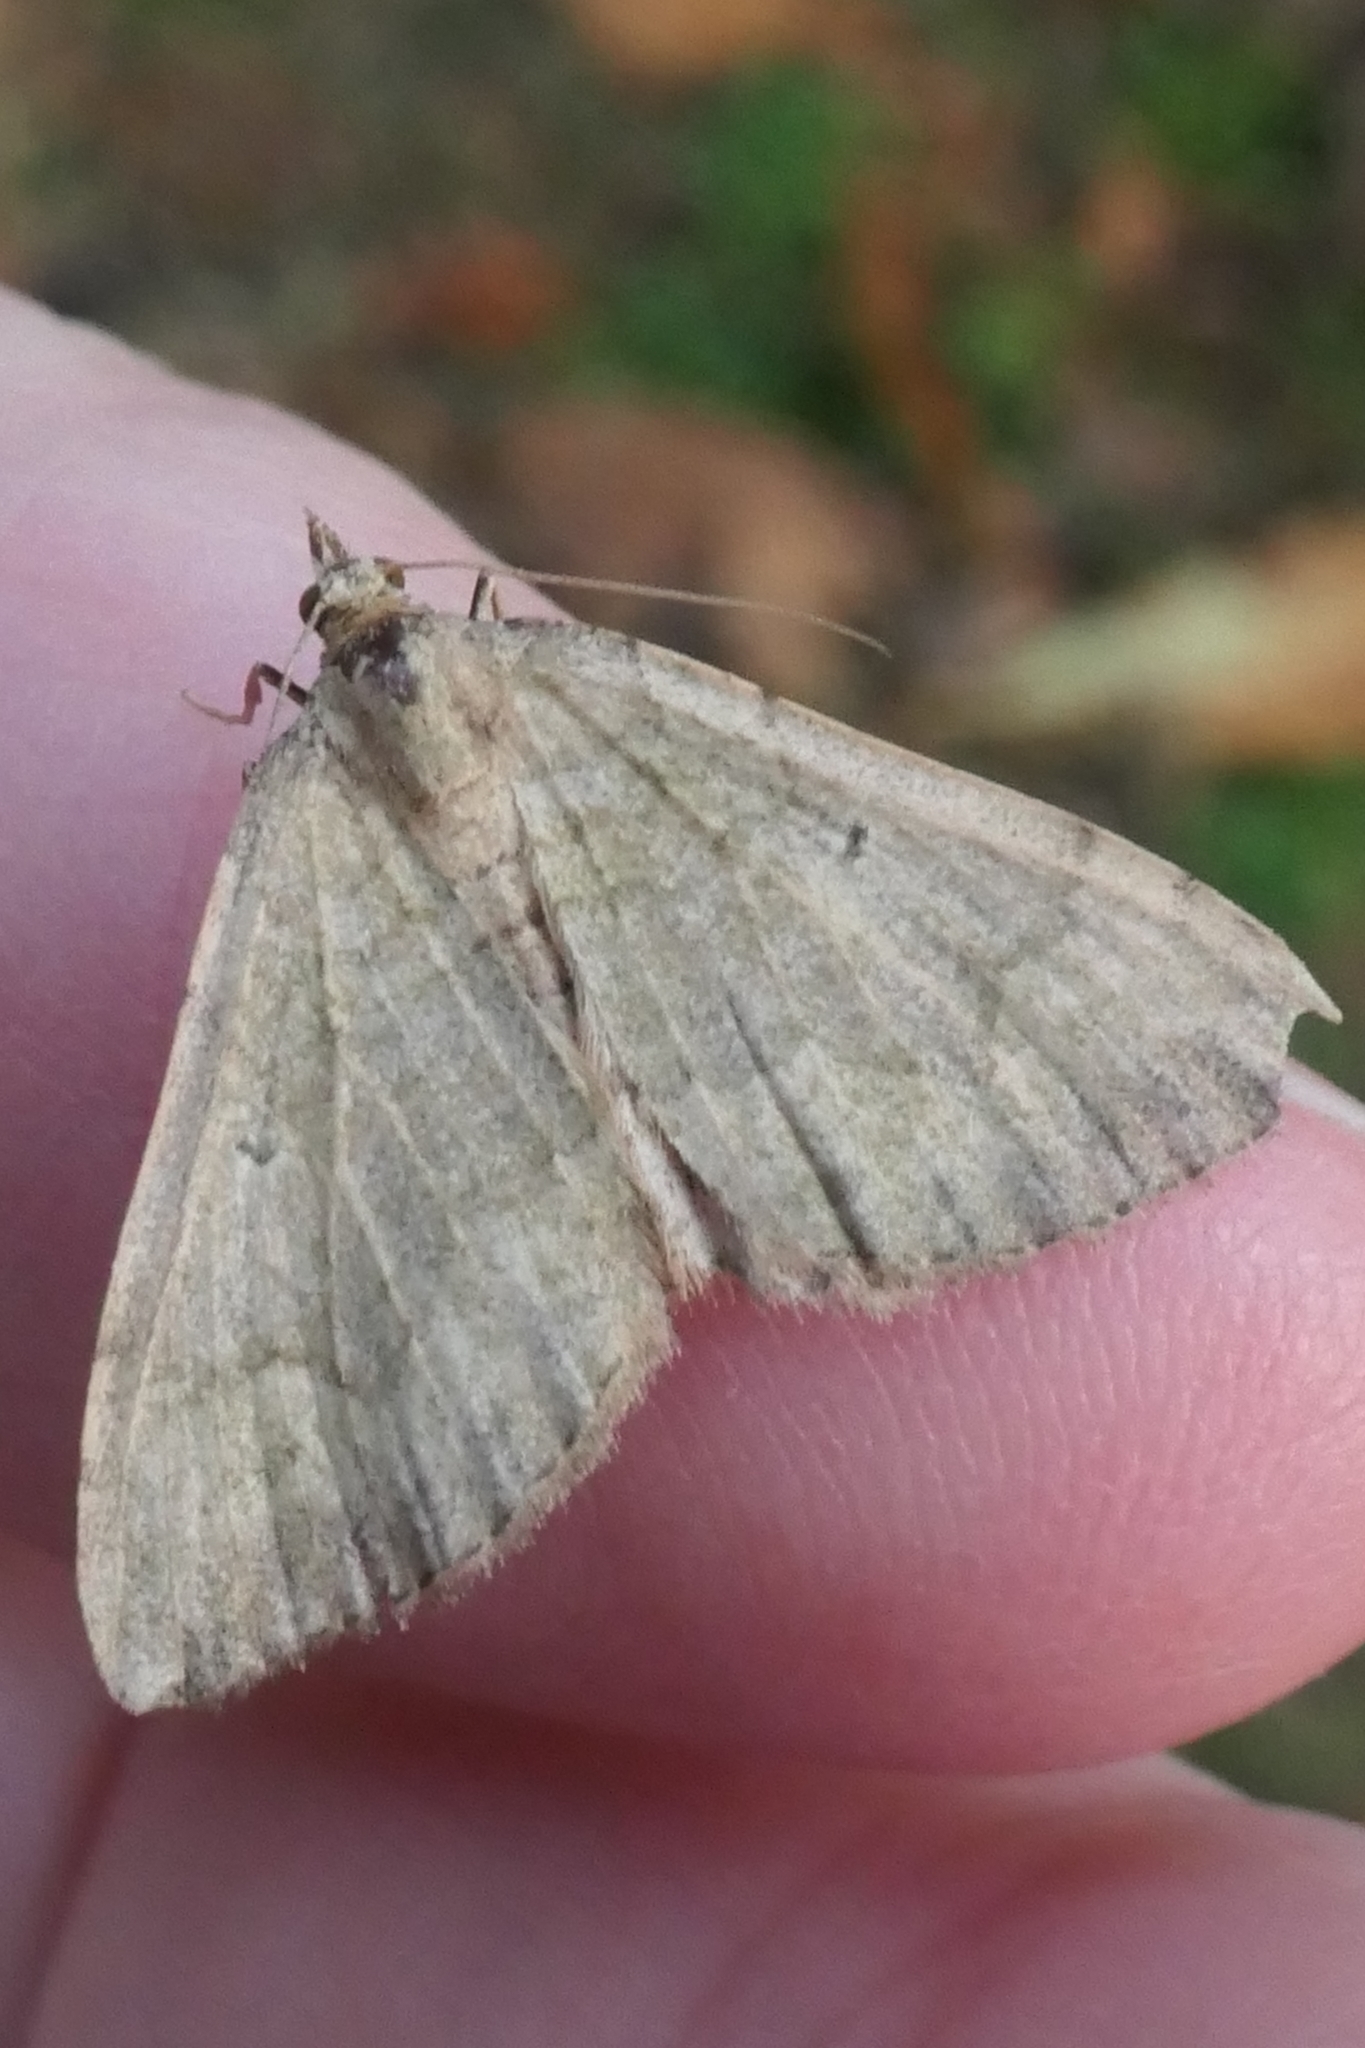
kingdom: Animalia
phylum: Arthropoda
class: Insecta
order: Lepidoptera
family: Geometridae
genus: Epyaxa
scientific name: Epyaxa rosearia
